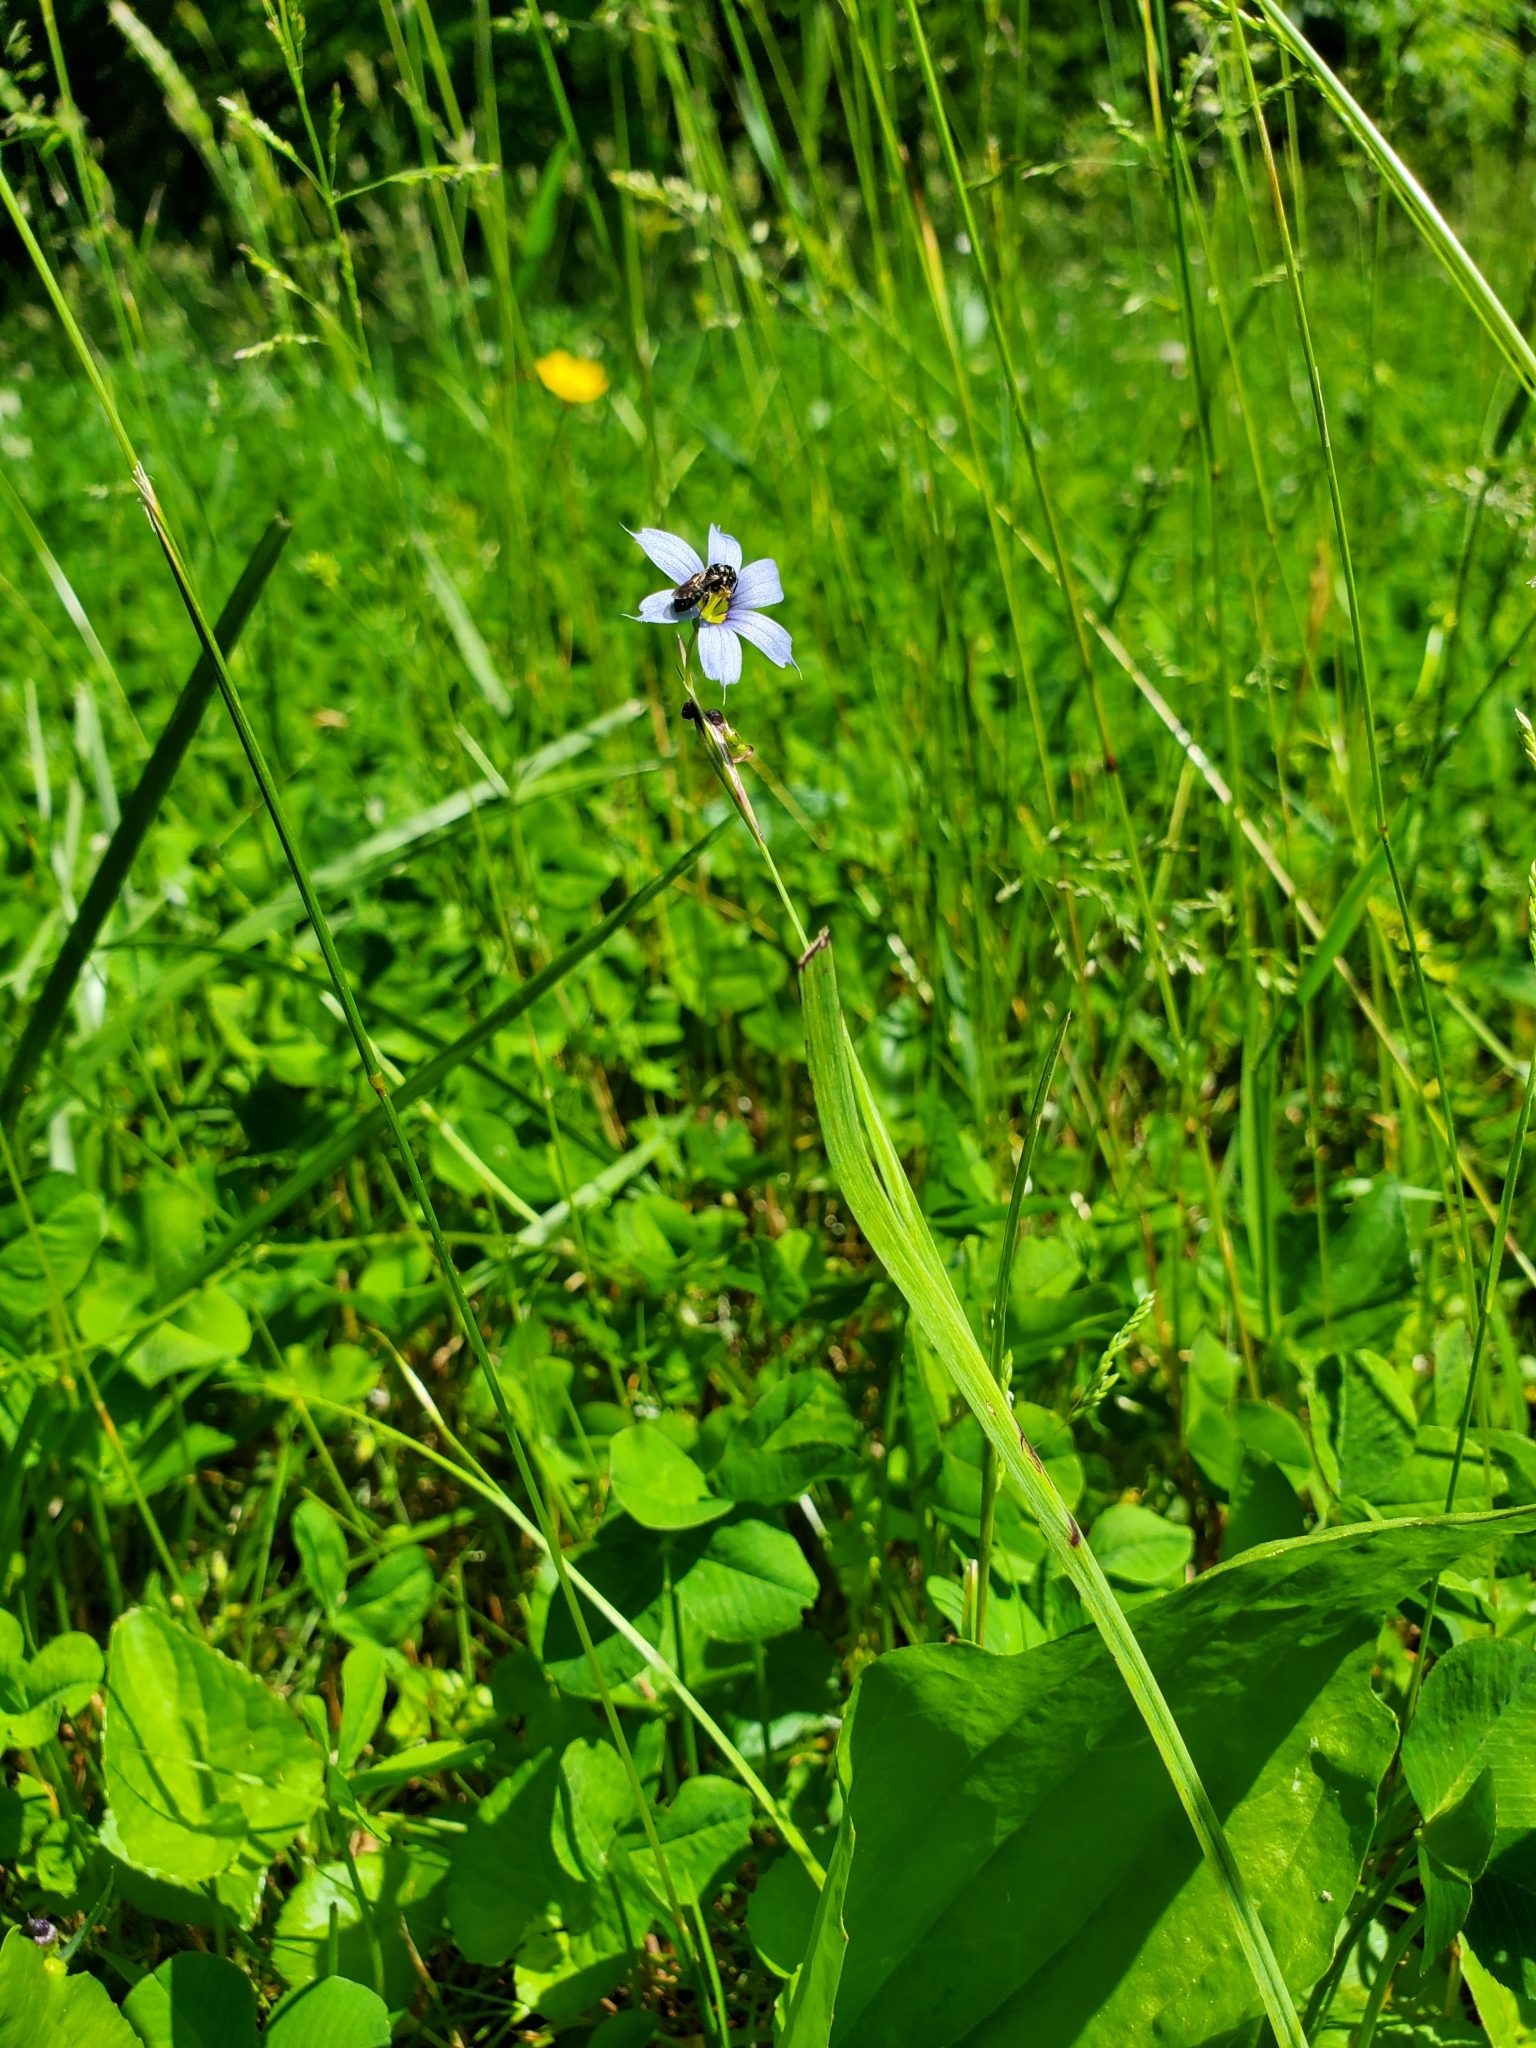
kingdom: Animalia
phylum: Arthropoda
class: Insecta
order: Hymenoptera
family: Apidae
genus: Zadontomerus
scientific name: Zadontomerus
